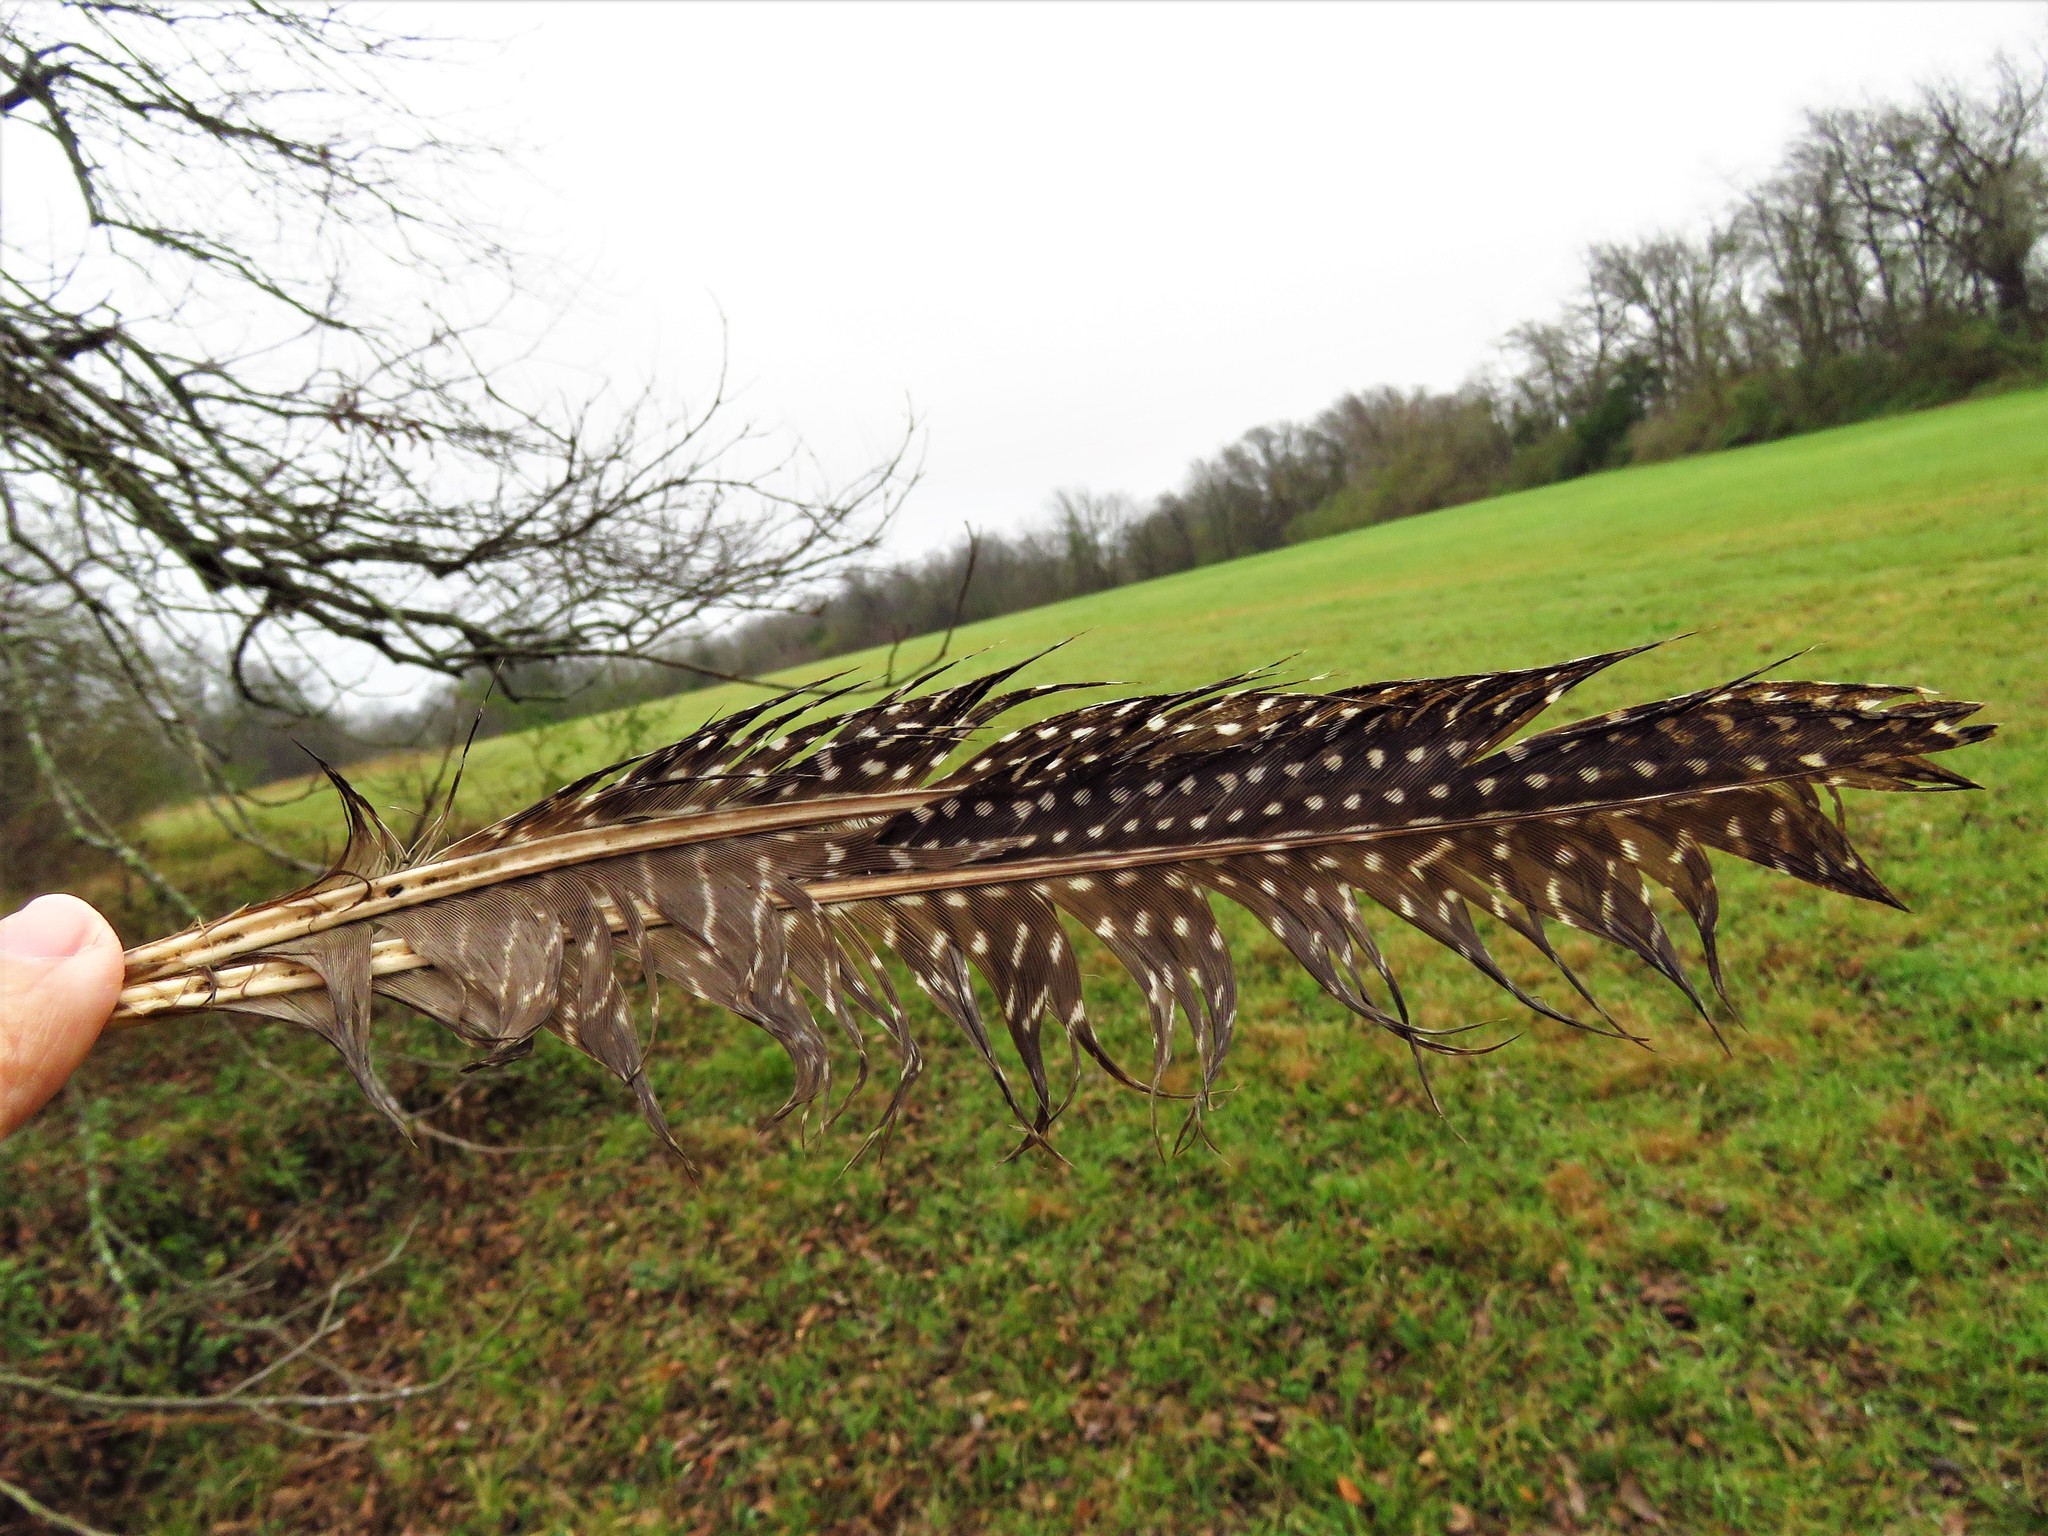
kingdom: Animalia
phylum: Chordata
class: Aves
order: Galliformes
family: Numididae
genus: Numida
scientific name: Numida meleagris
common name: Helmeted guineafowl
